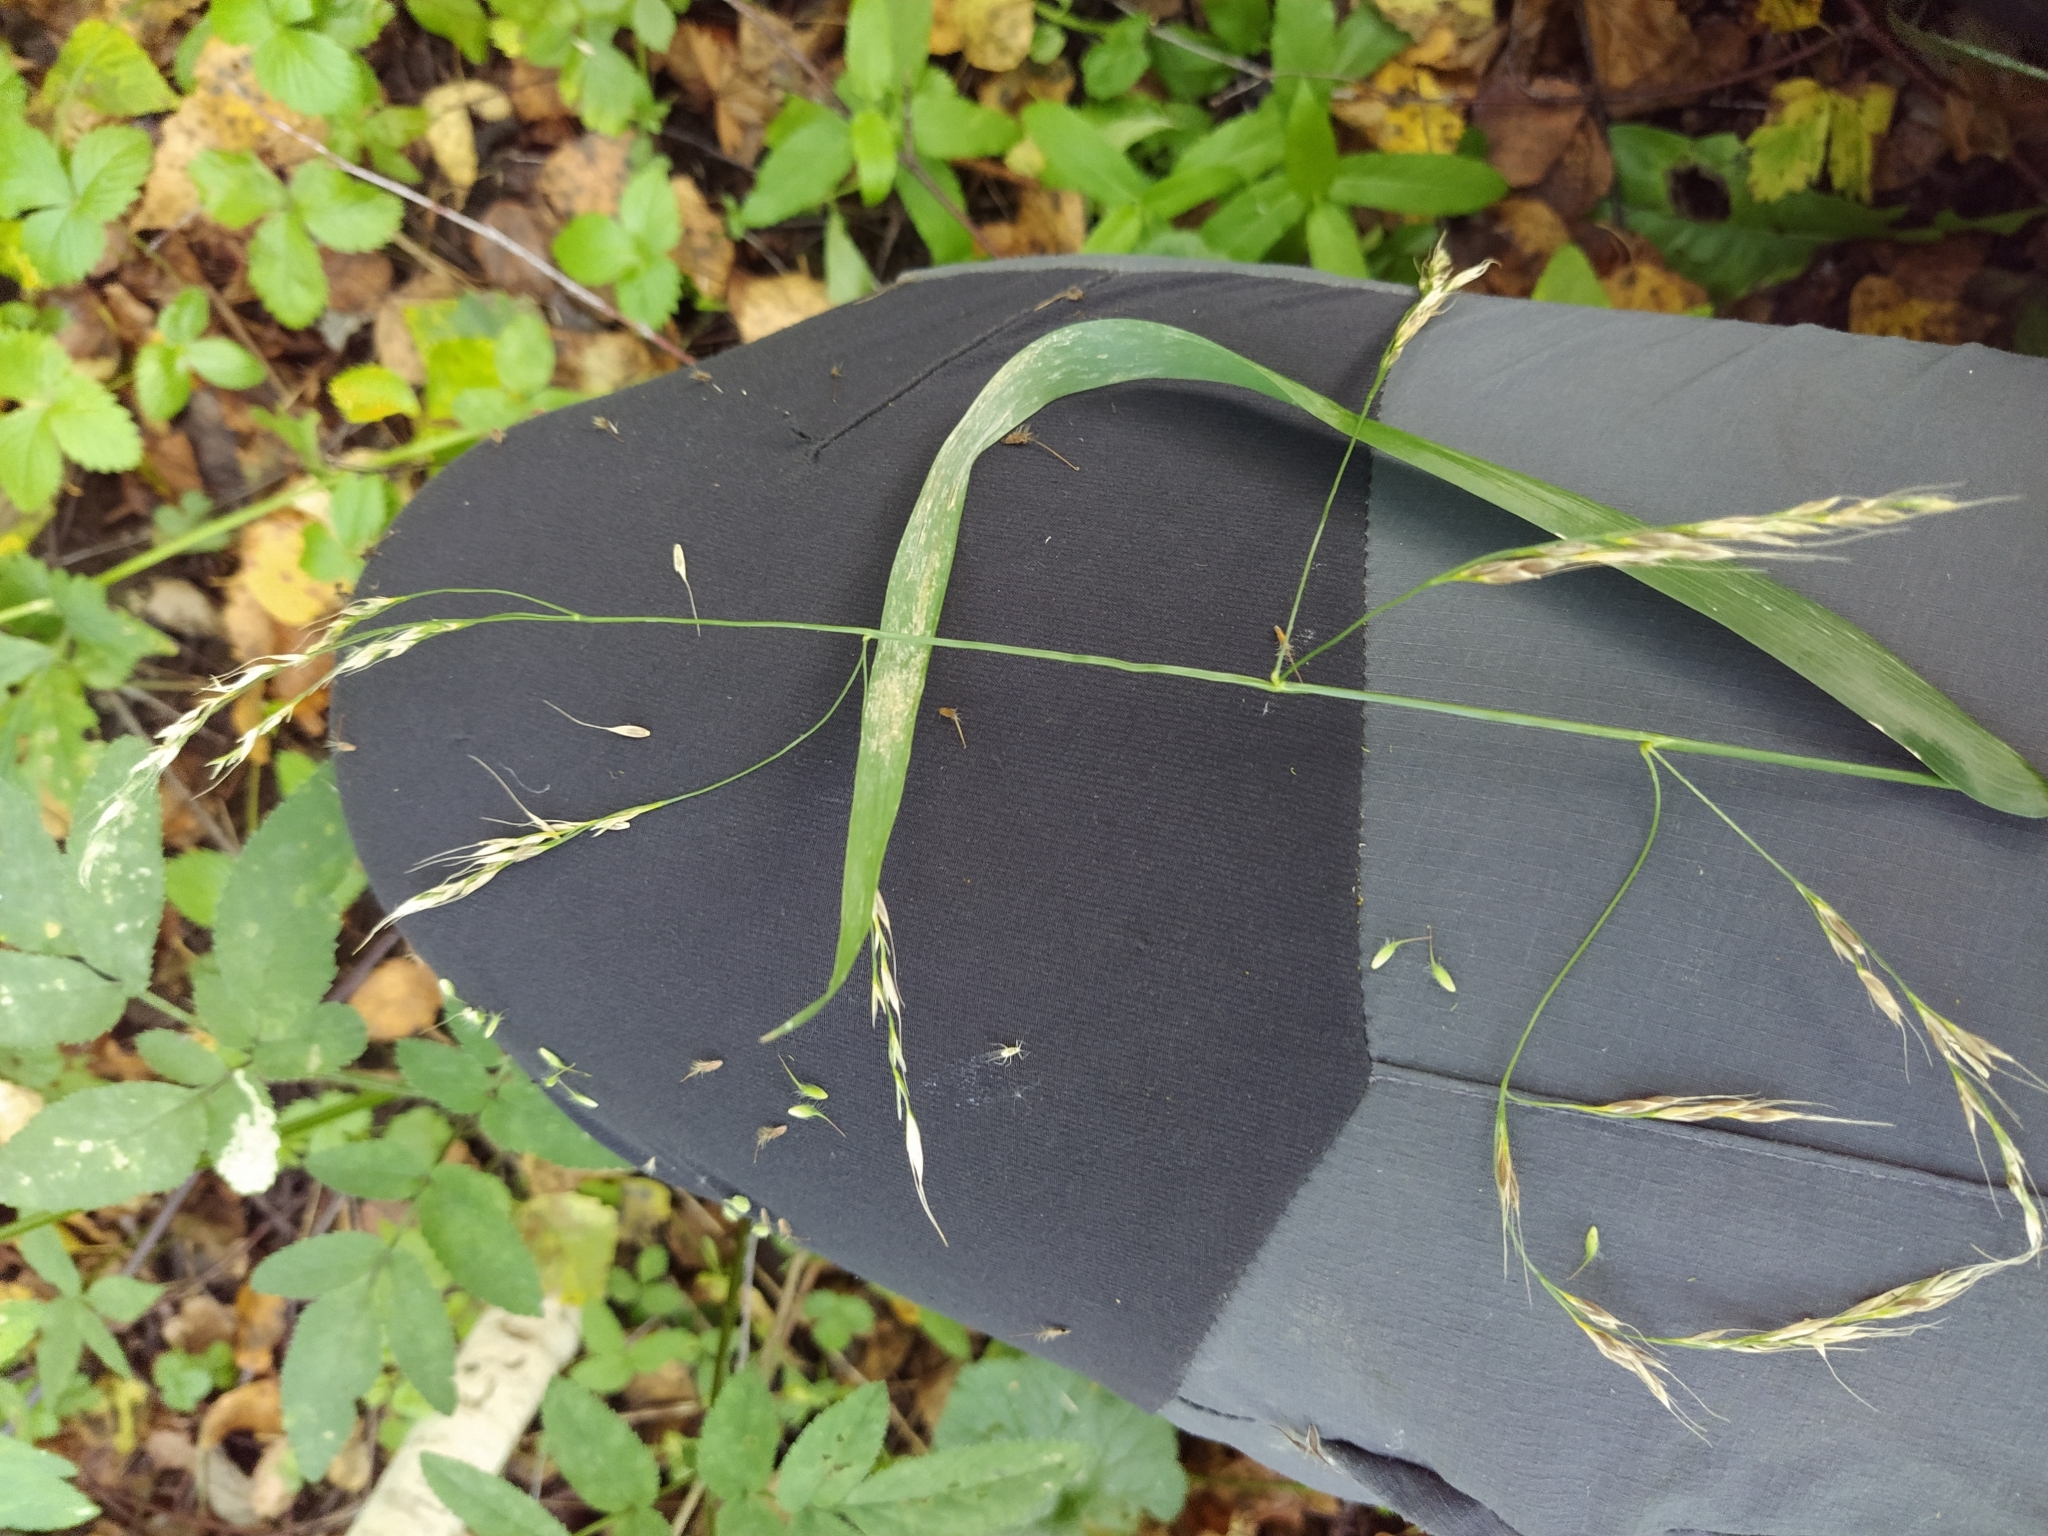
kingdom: Plantae
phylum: Tracheophyta
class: Liliopsida
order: Poales
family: Poaceae
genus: Lolium
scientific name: Lolium giganteum
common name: Giant fescue
